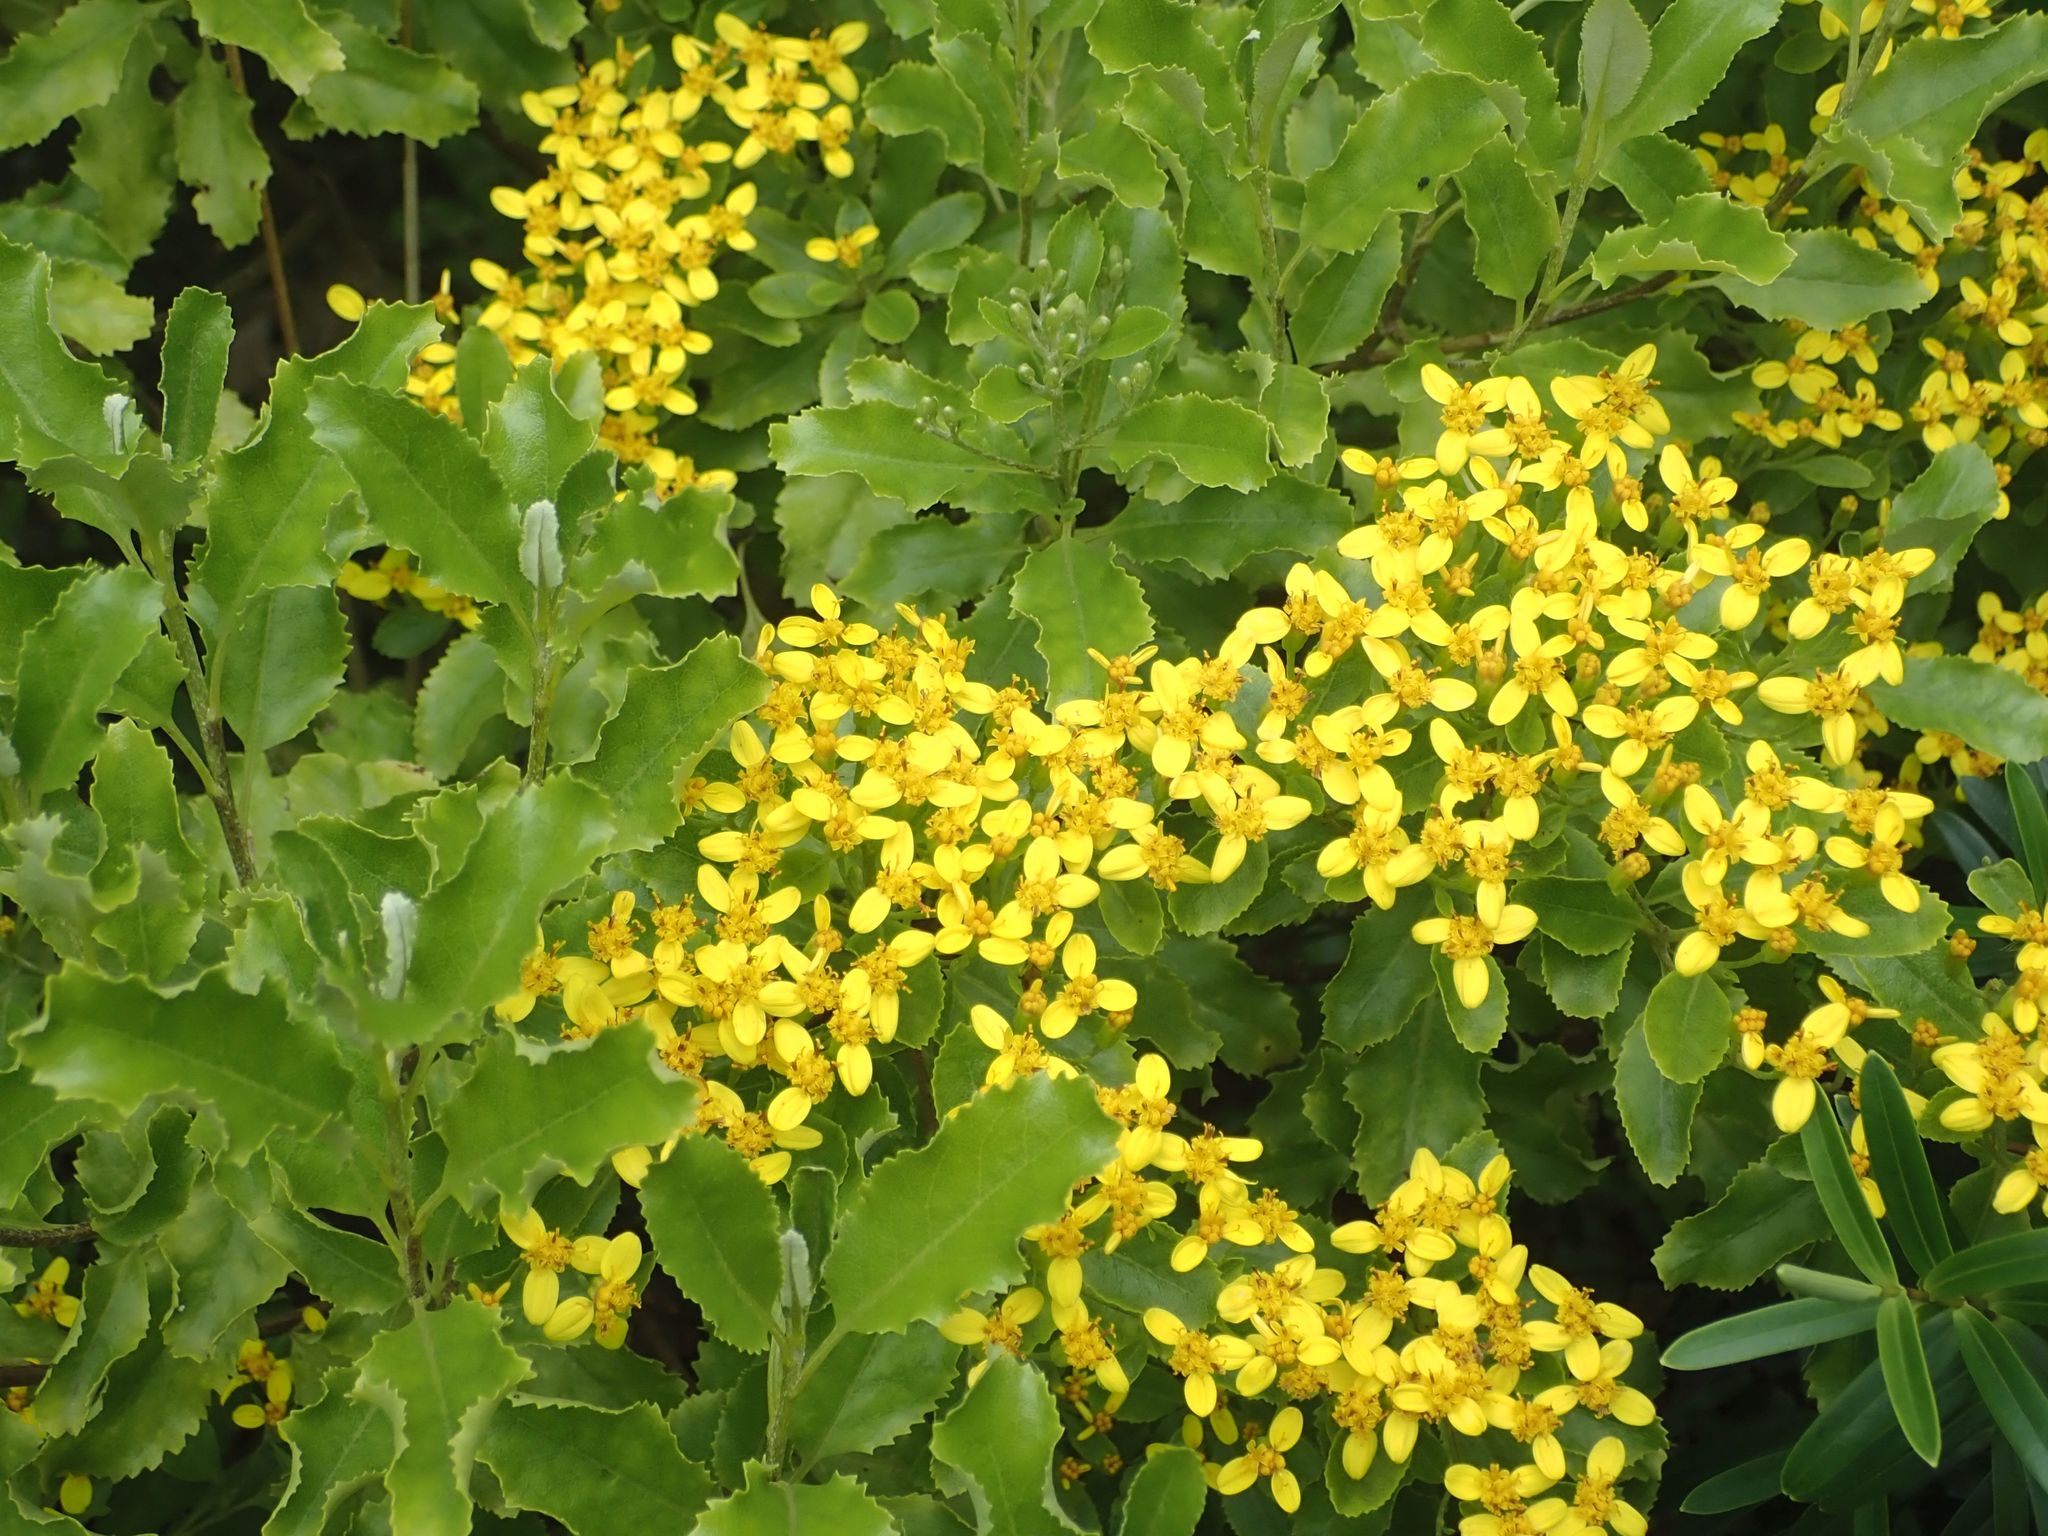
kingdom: Plantae
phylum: Tracheophyta
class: Magnoliopsida
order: Asterales
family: Asteraceae
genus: Brachyglottis
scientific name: Brachyglottis perdicioides
